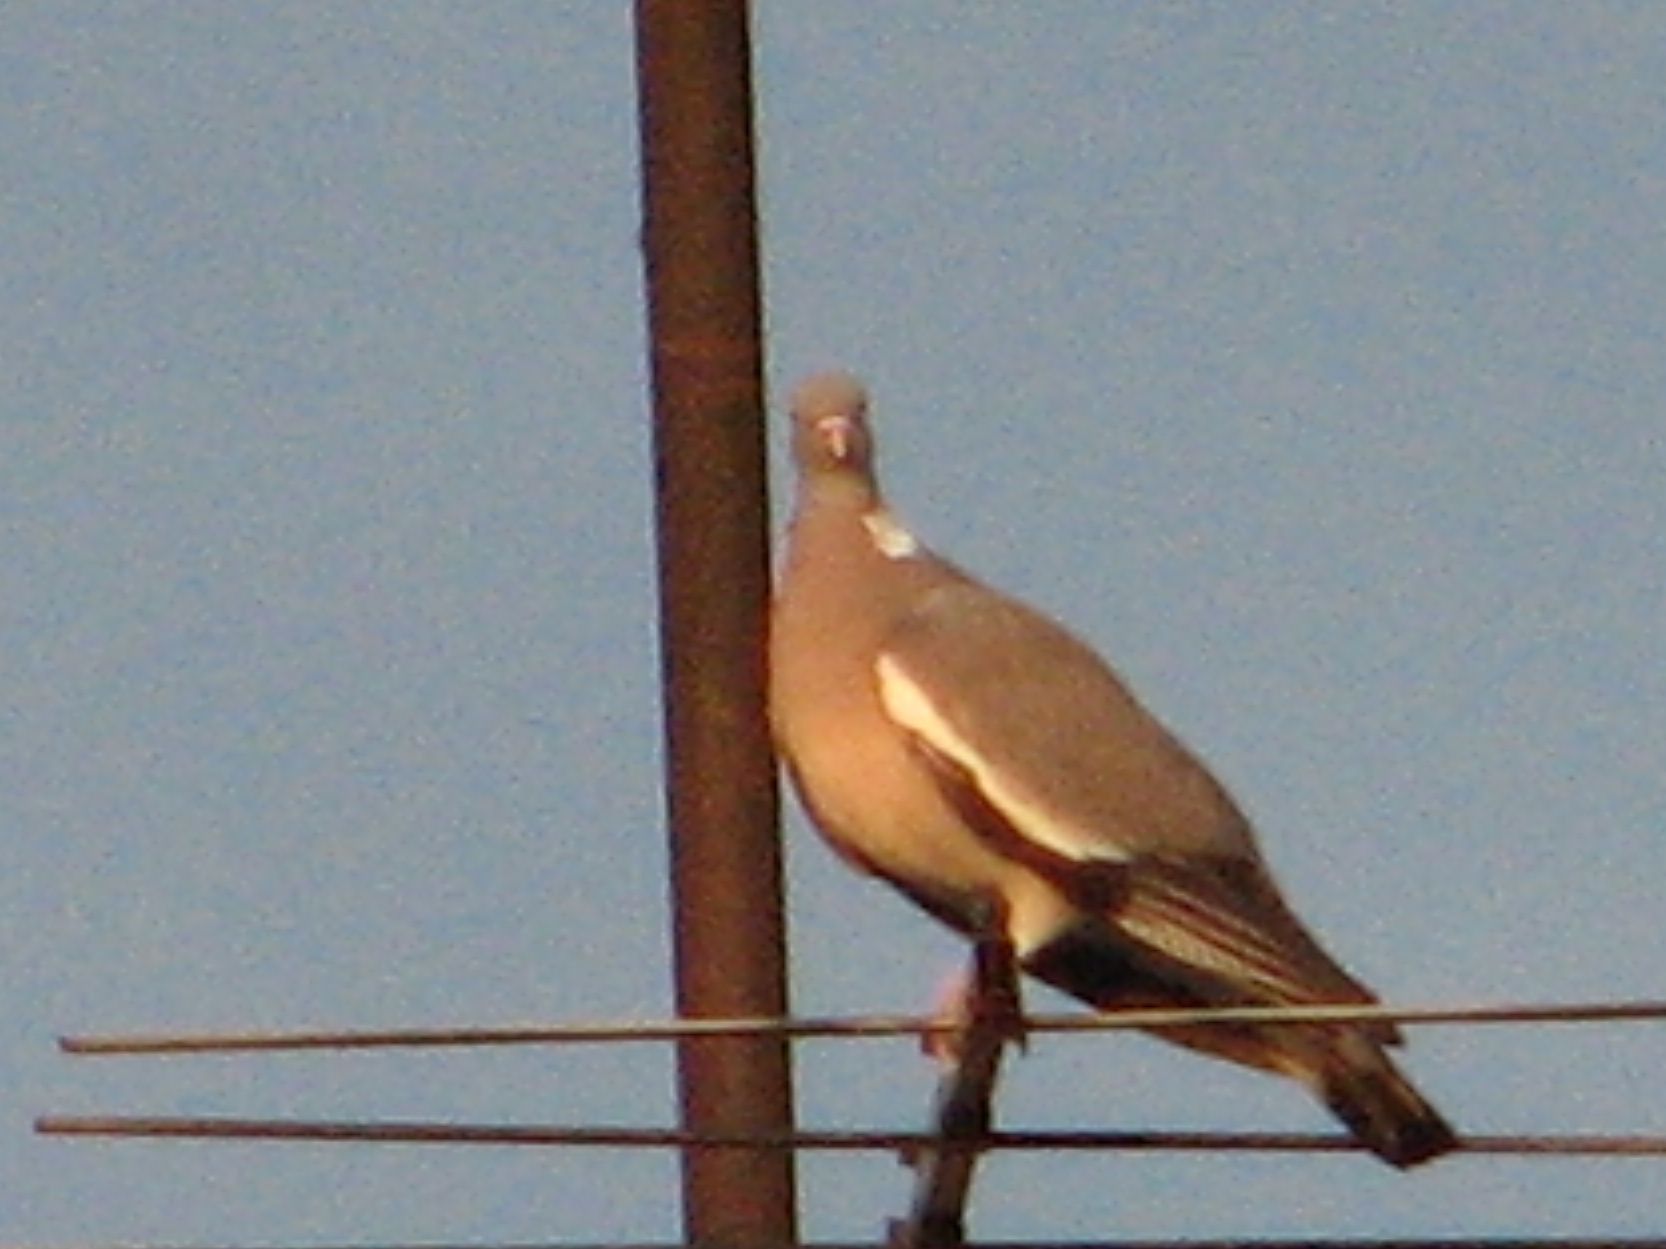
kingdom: Animalia
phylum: Chordata
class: Aves
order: Columbiformes
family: Columbidae
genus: Columba
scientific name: Columba palumbus
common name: Common wood pigeon
